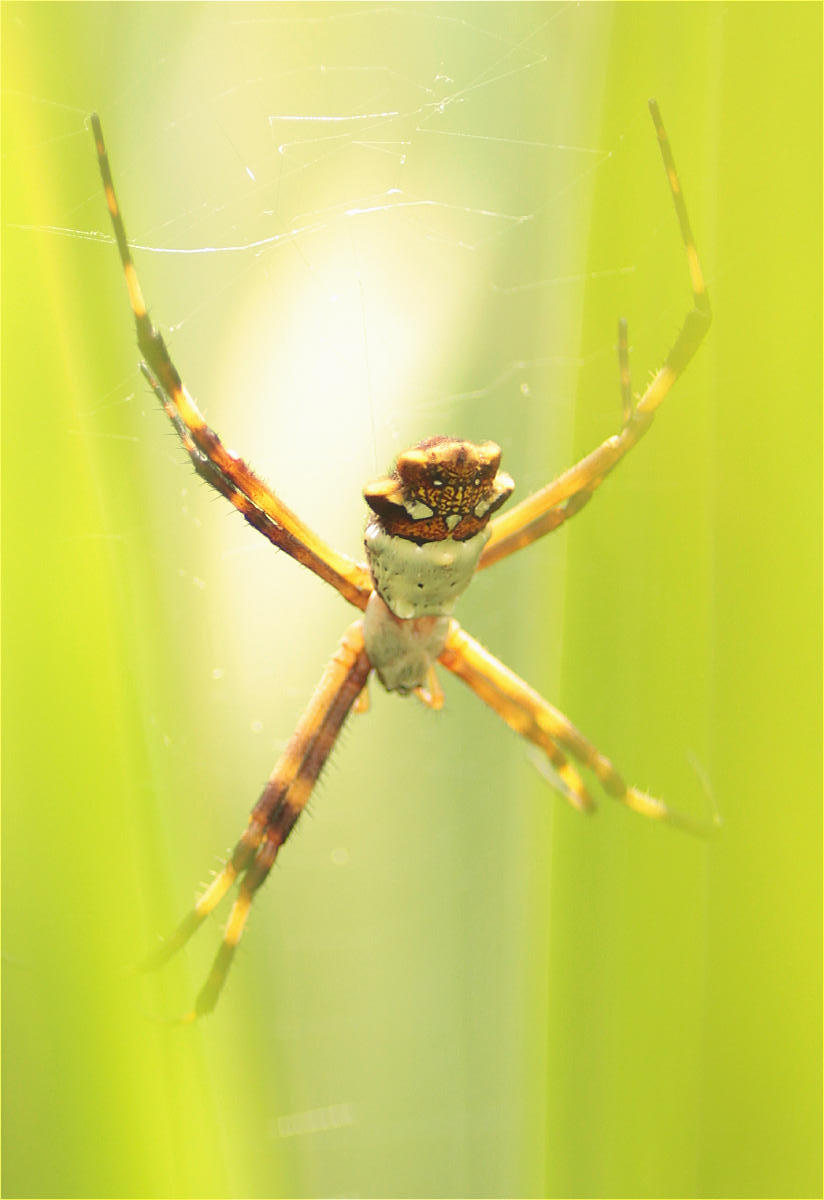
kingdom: Animalia
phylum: Arthropoda
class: Arachnida
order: Araneae
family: Araneidae
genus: Argiope
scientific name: Argiope argentata
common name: Orb weavers
